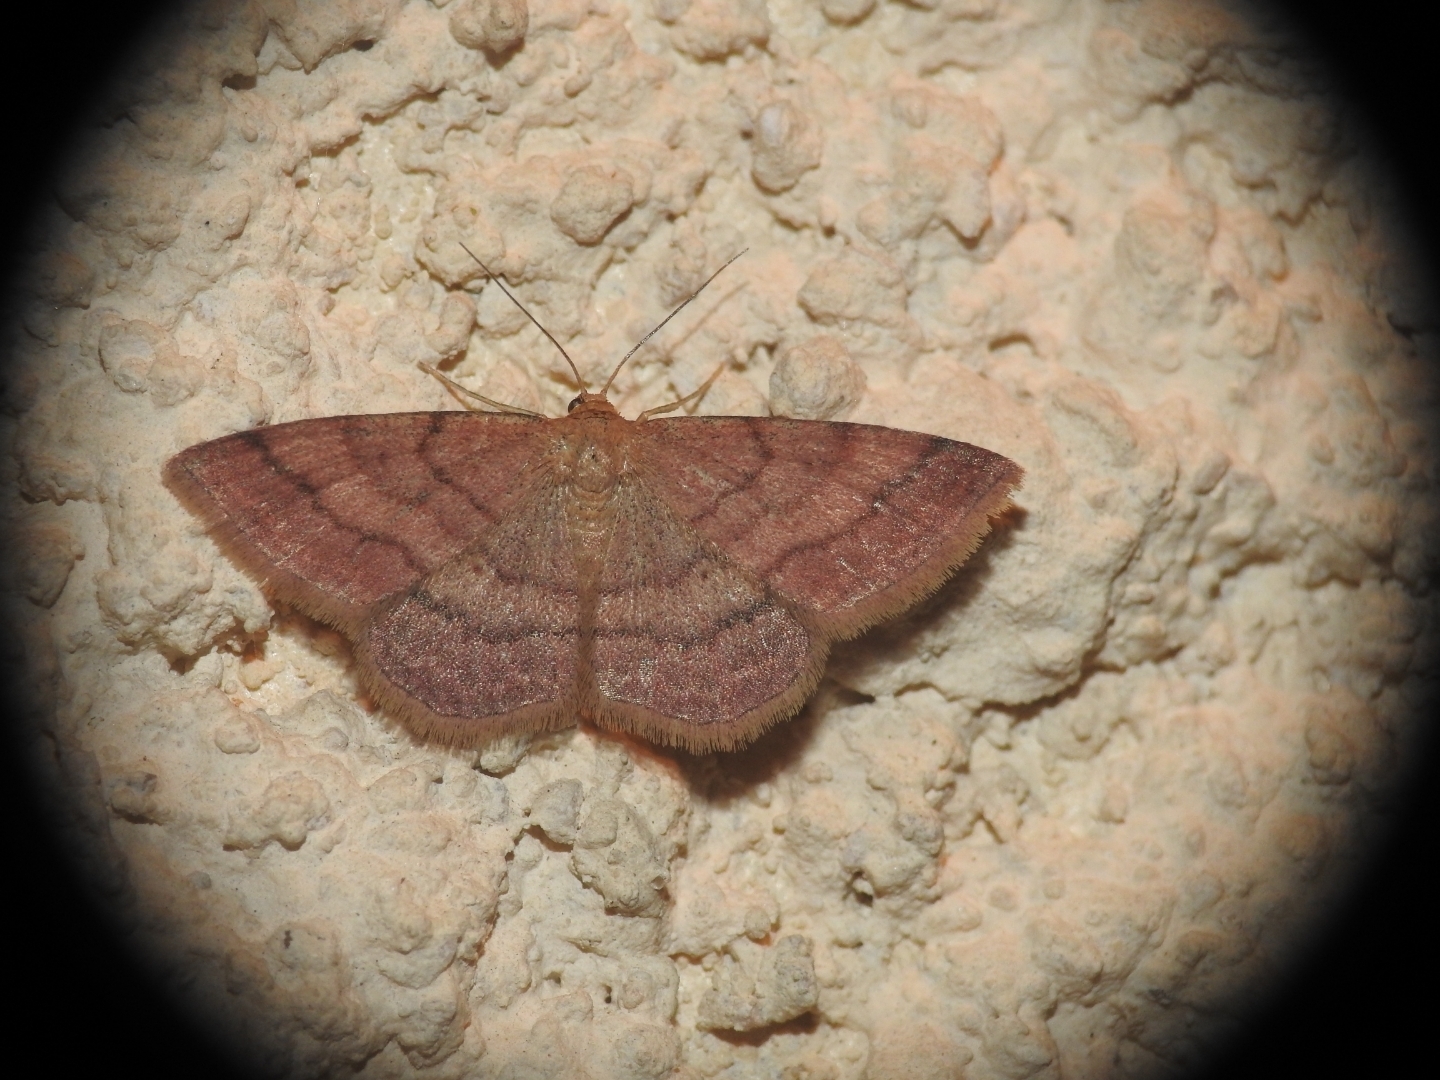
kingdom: Animalia
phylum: Arthropoda
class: Insecta
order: Lepidoptera
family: Geometridae
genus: Scopula
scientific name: Scopula rubiginata
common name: Tawny wave
